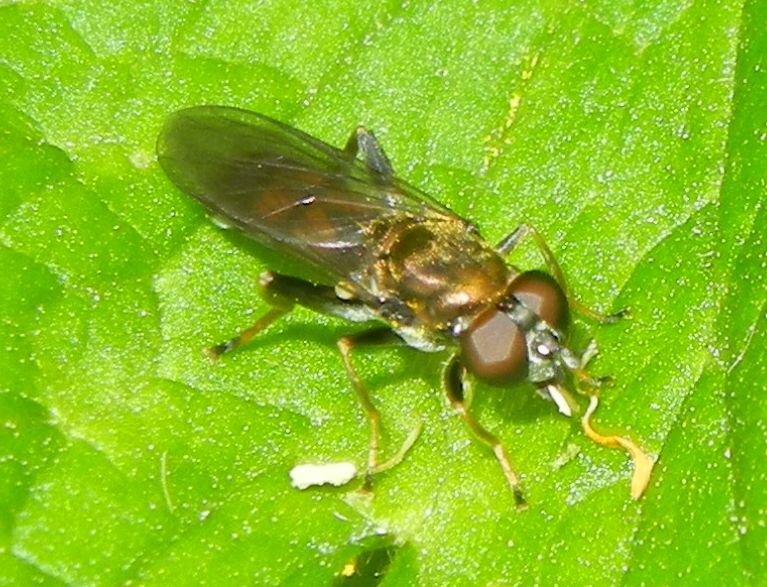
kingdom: Animalia
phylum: Arthropoda
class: Insecta
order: Diptera
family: Syrphidae
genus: Chalcosyrphus
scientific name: Chalcosyrphus nemorum
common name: Dusky-banded forest fly
